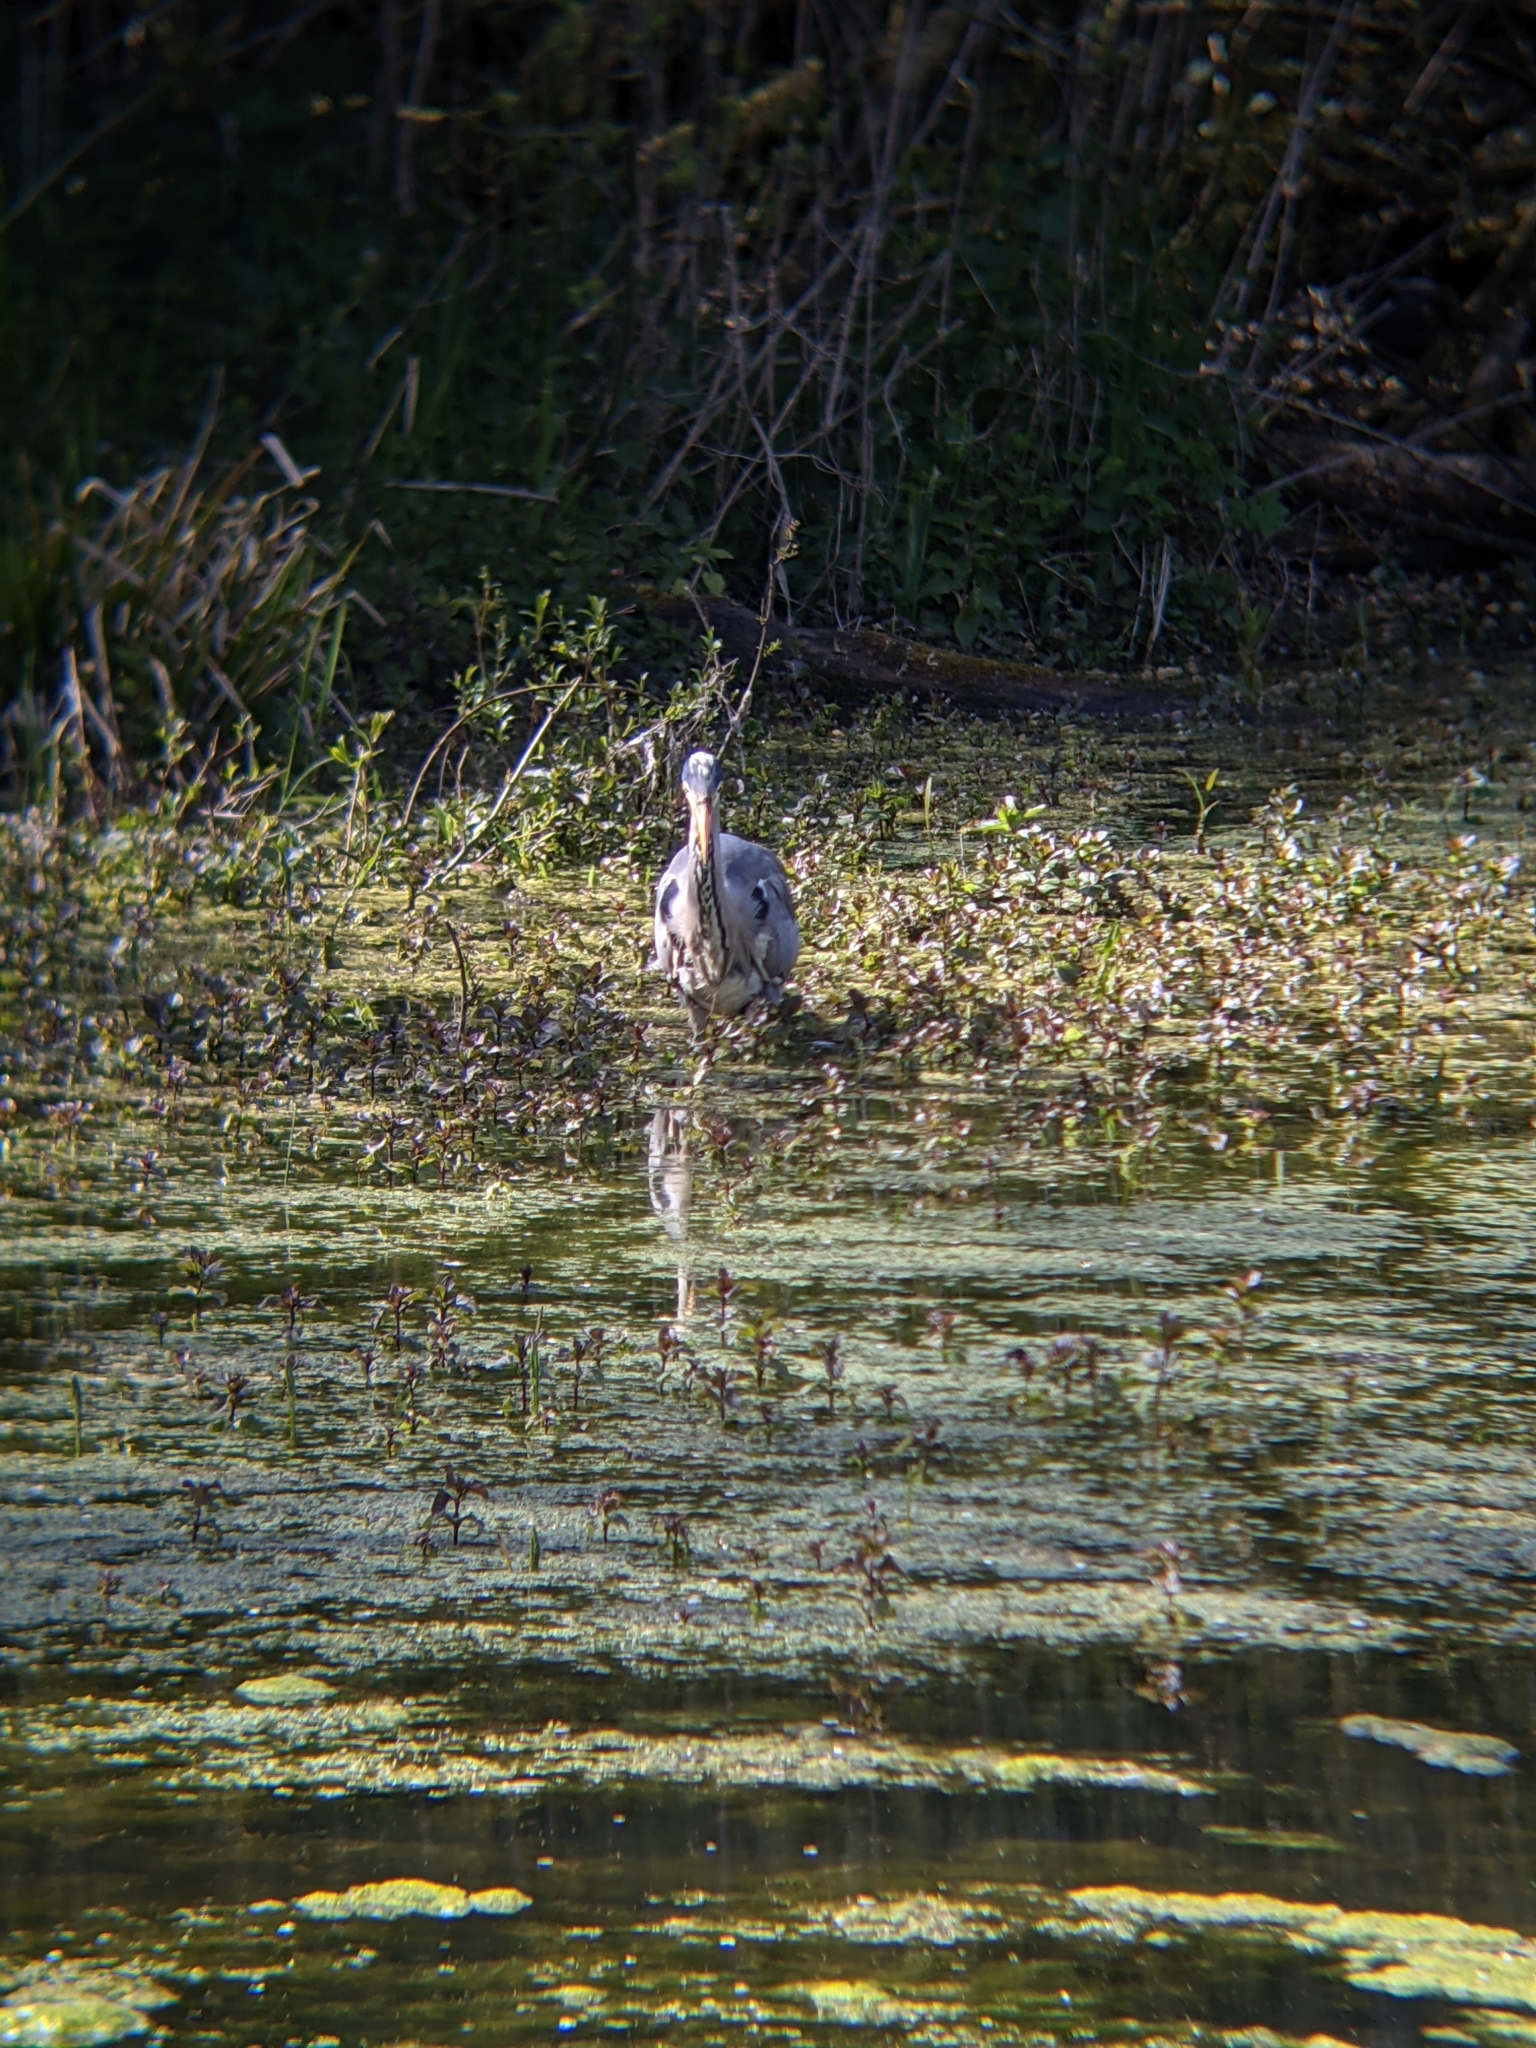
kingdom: Animalia
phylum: Chordata
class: Aves
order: Pelecaniformes
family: Ardeidae
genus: Ardea
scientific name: Ardea cinerea
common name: Grey heron
